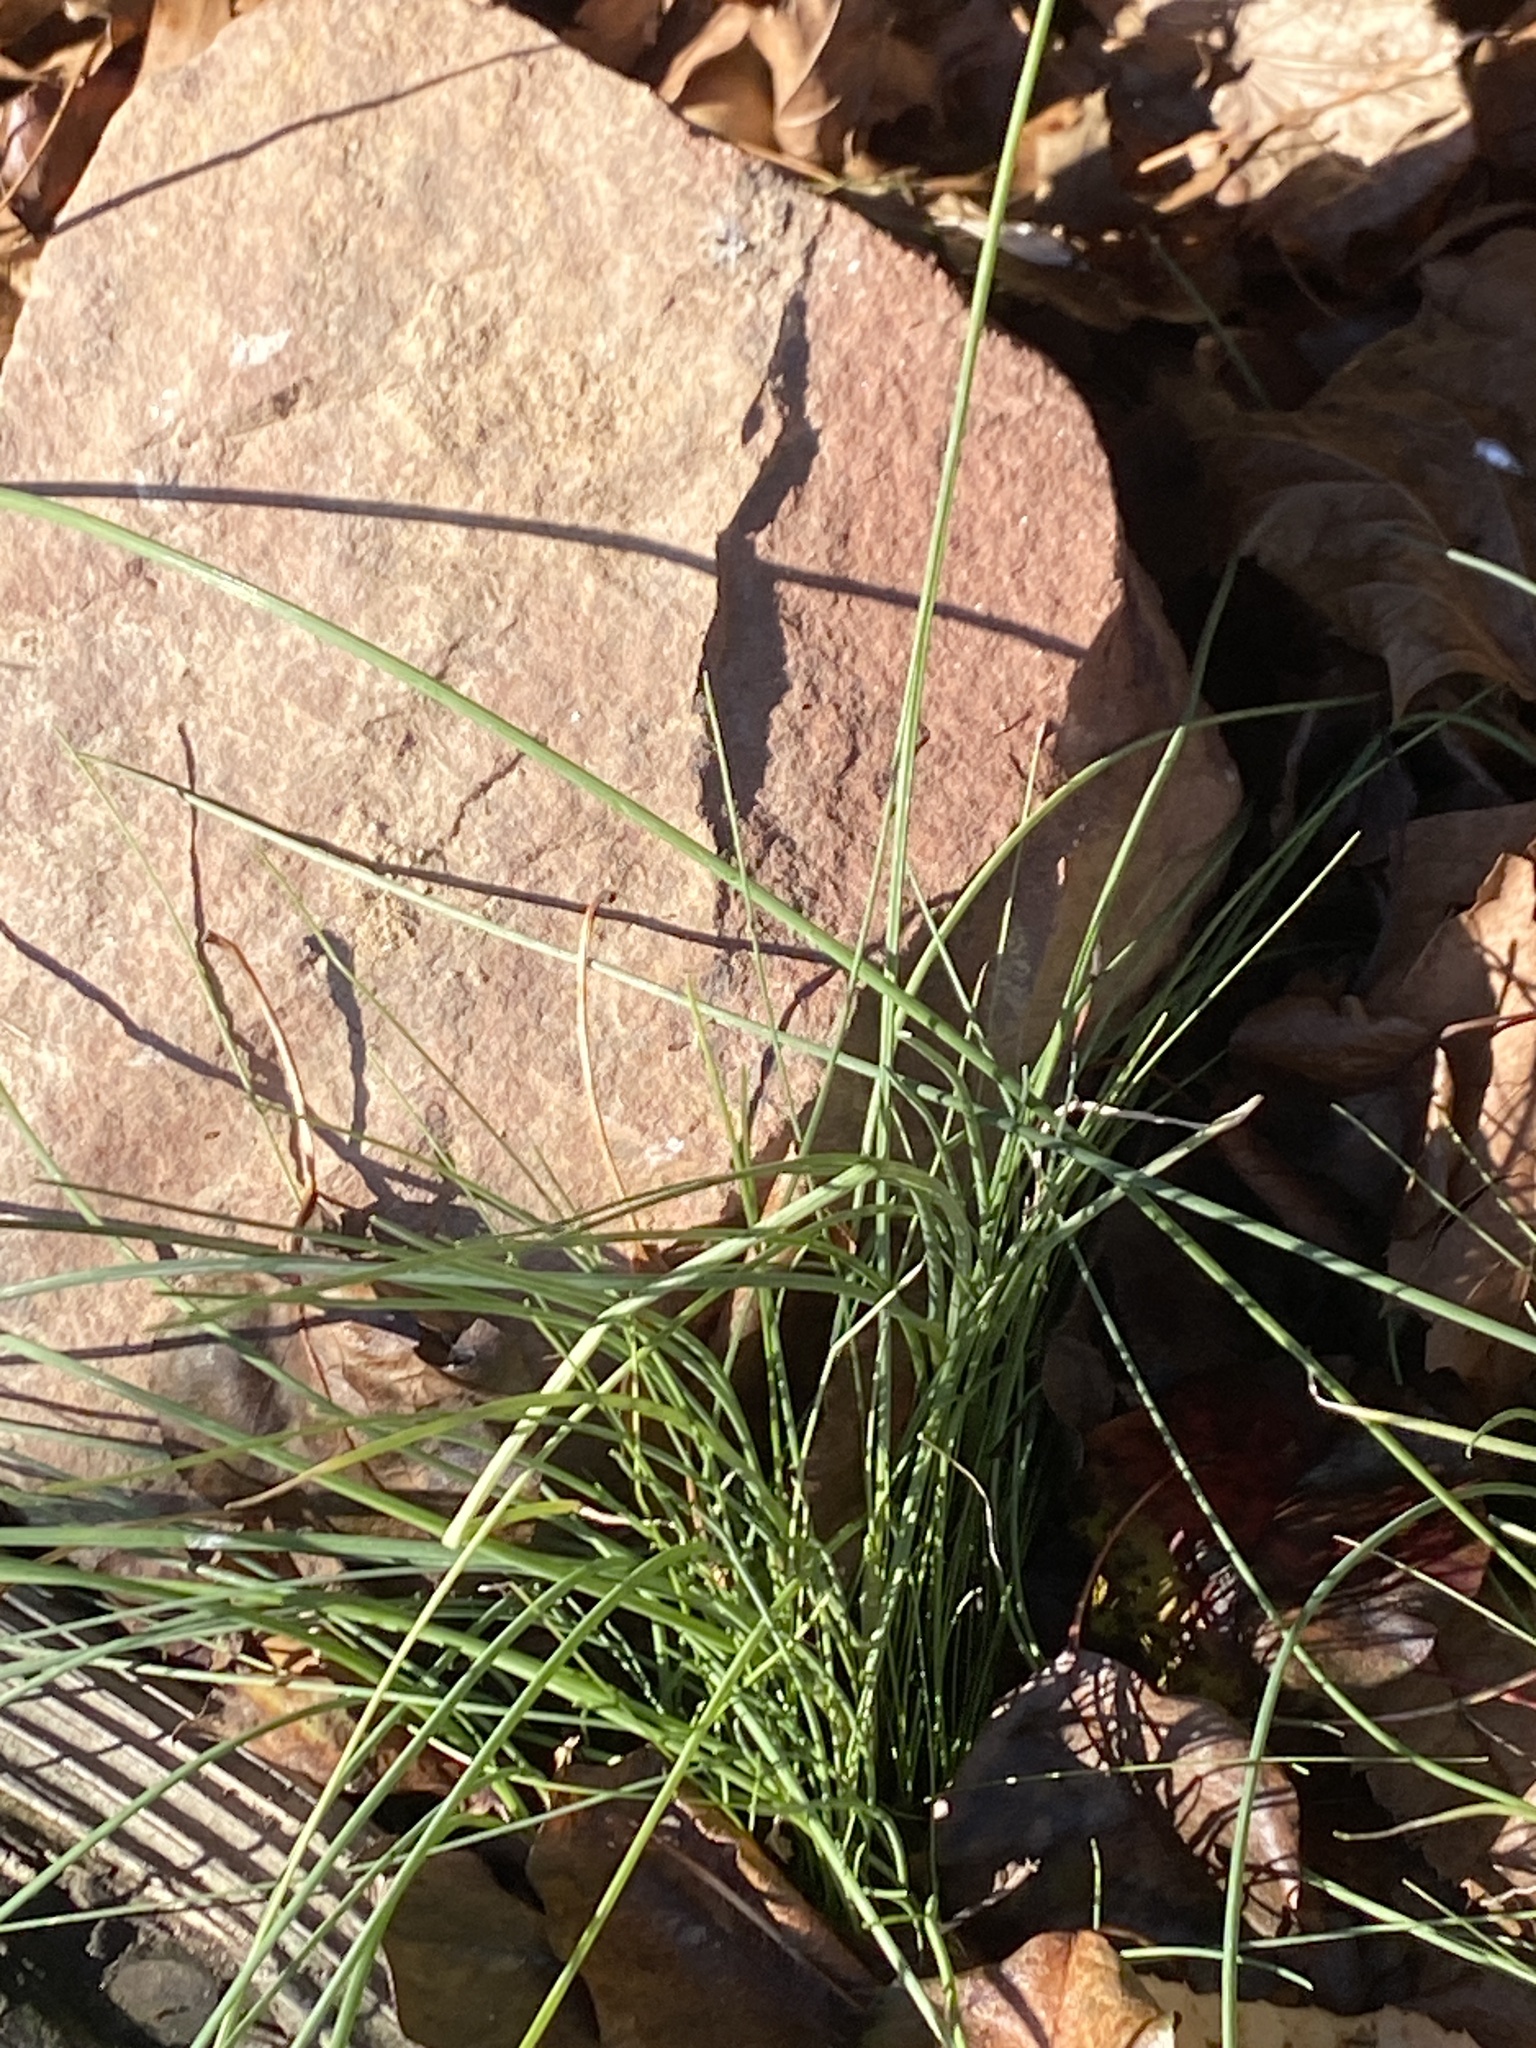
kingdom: Plantae
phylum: Tracheophyta
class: Liliopsida
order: Asparagales
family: Amaryllidaceae
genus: Allium
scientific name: Allium vineale
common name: Crow garlic
